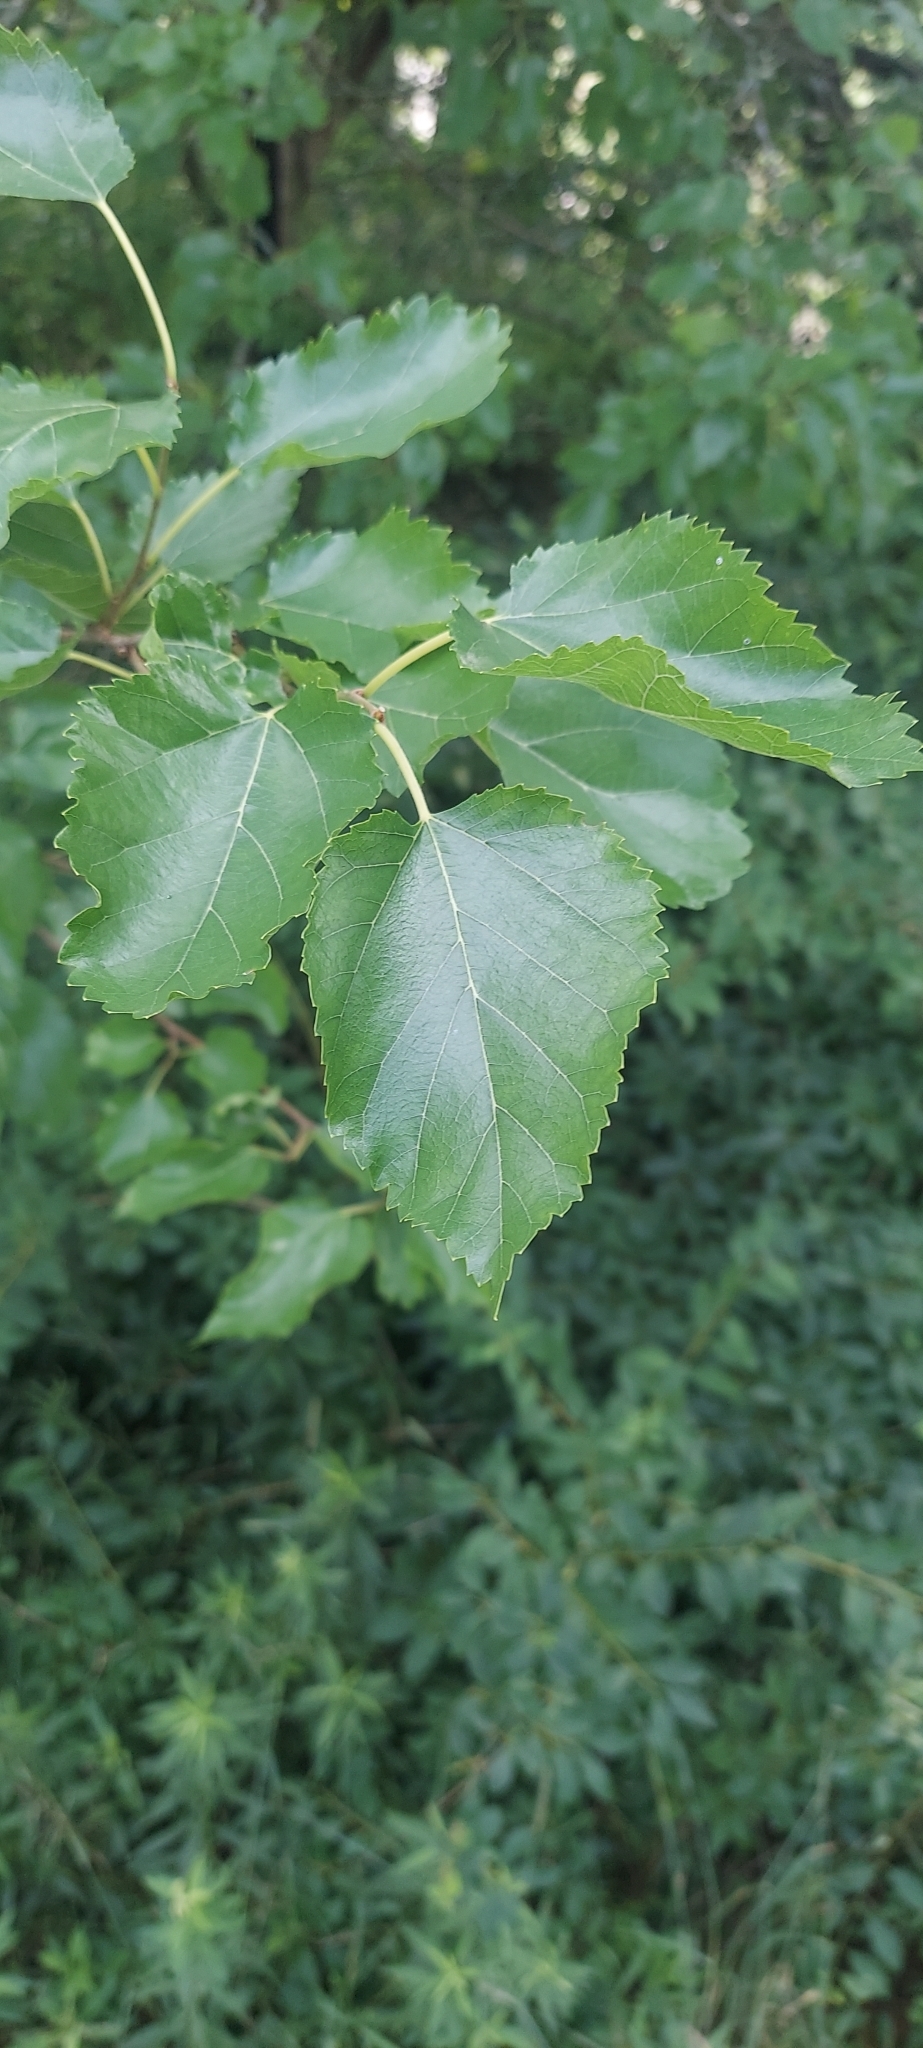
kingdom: Plantae
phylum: Tracheophyta
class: Magnoliopsida
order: Rosales
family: Moraceae
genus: Morus
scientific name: Morus alba
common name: White mulberry
